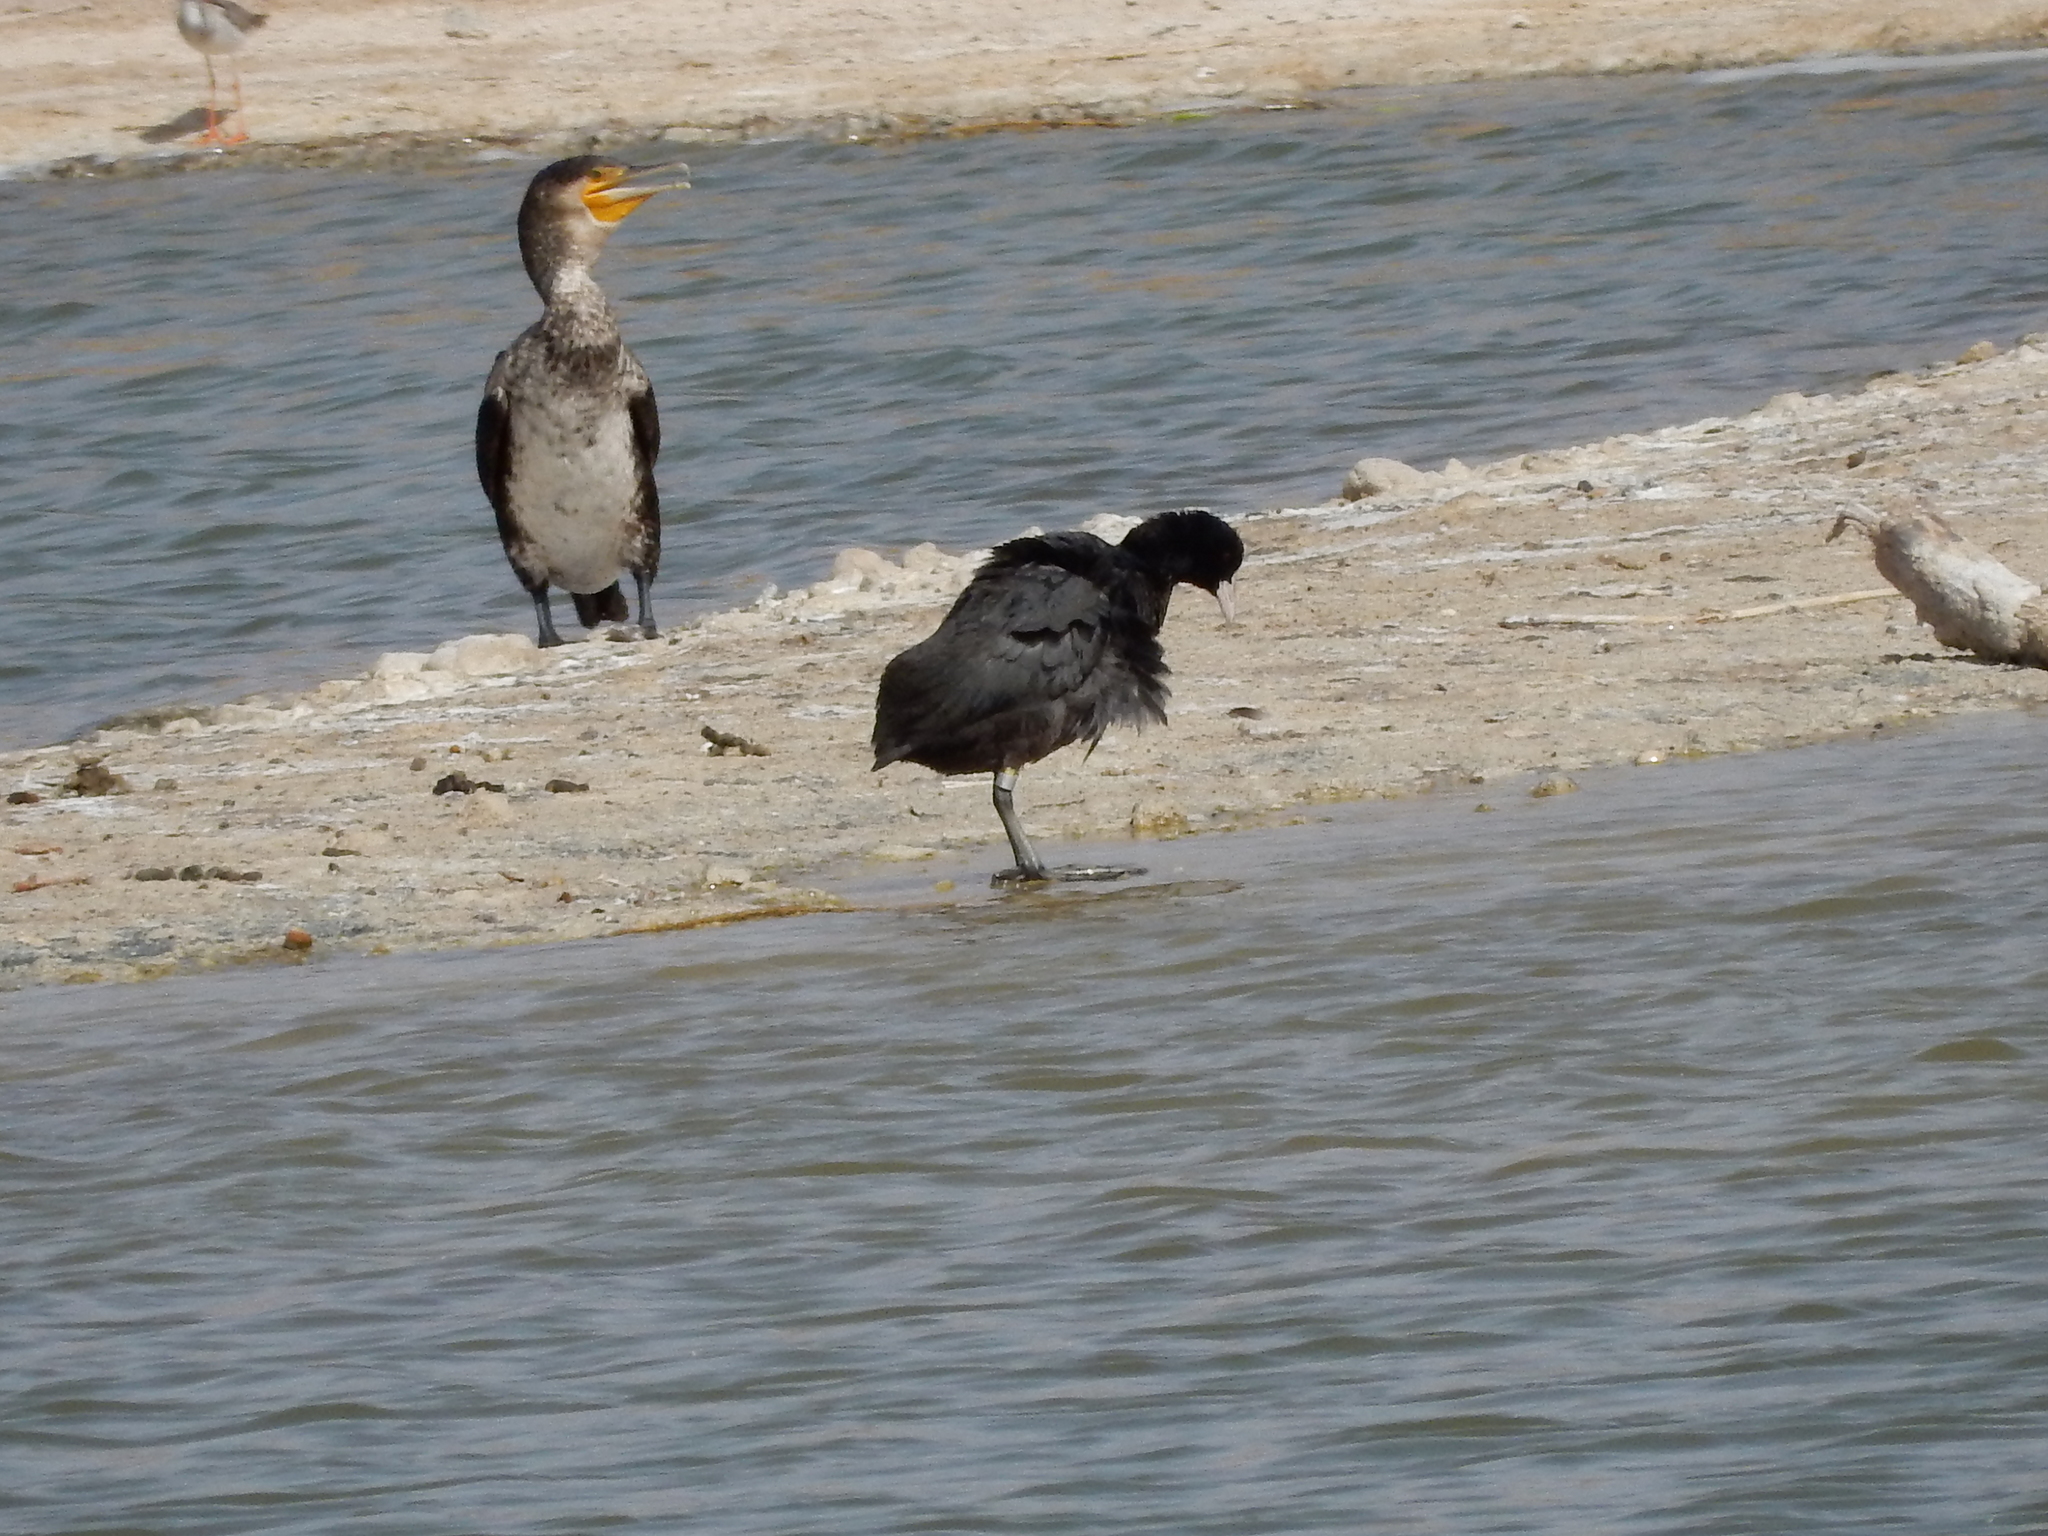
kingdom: Animalia
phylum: Chordata
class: Aves
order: Gruiformes
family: Rallidae
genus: Fulica
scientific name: Fulica atra
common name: Eurasian coot
